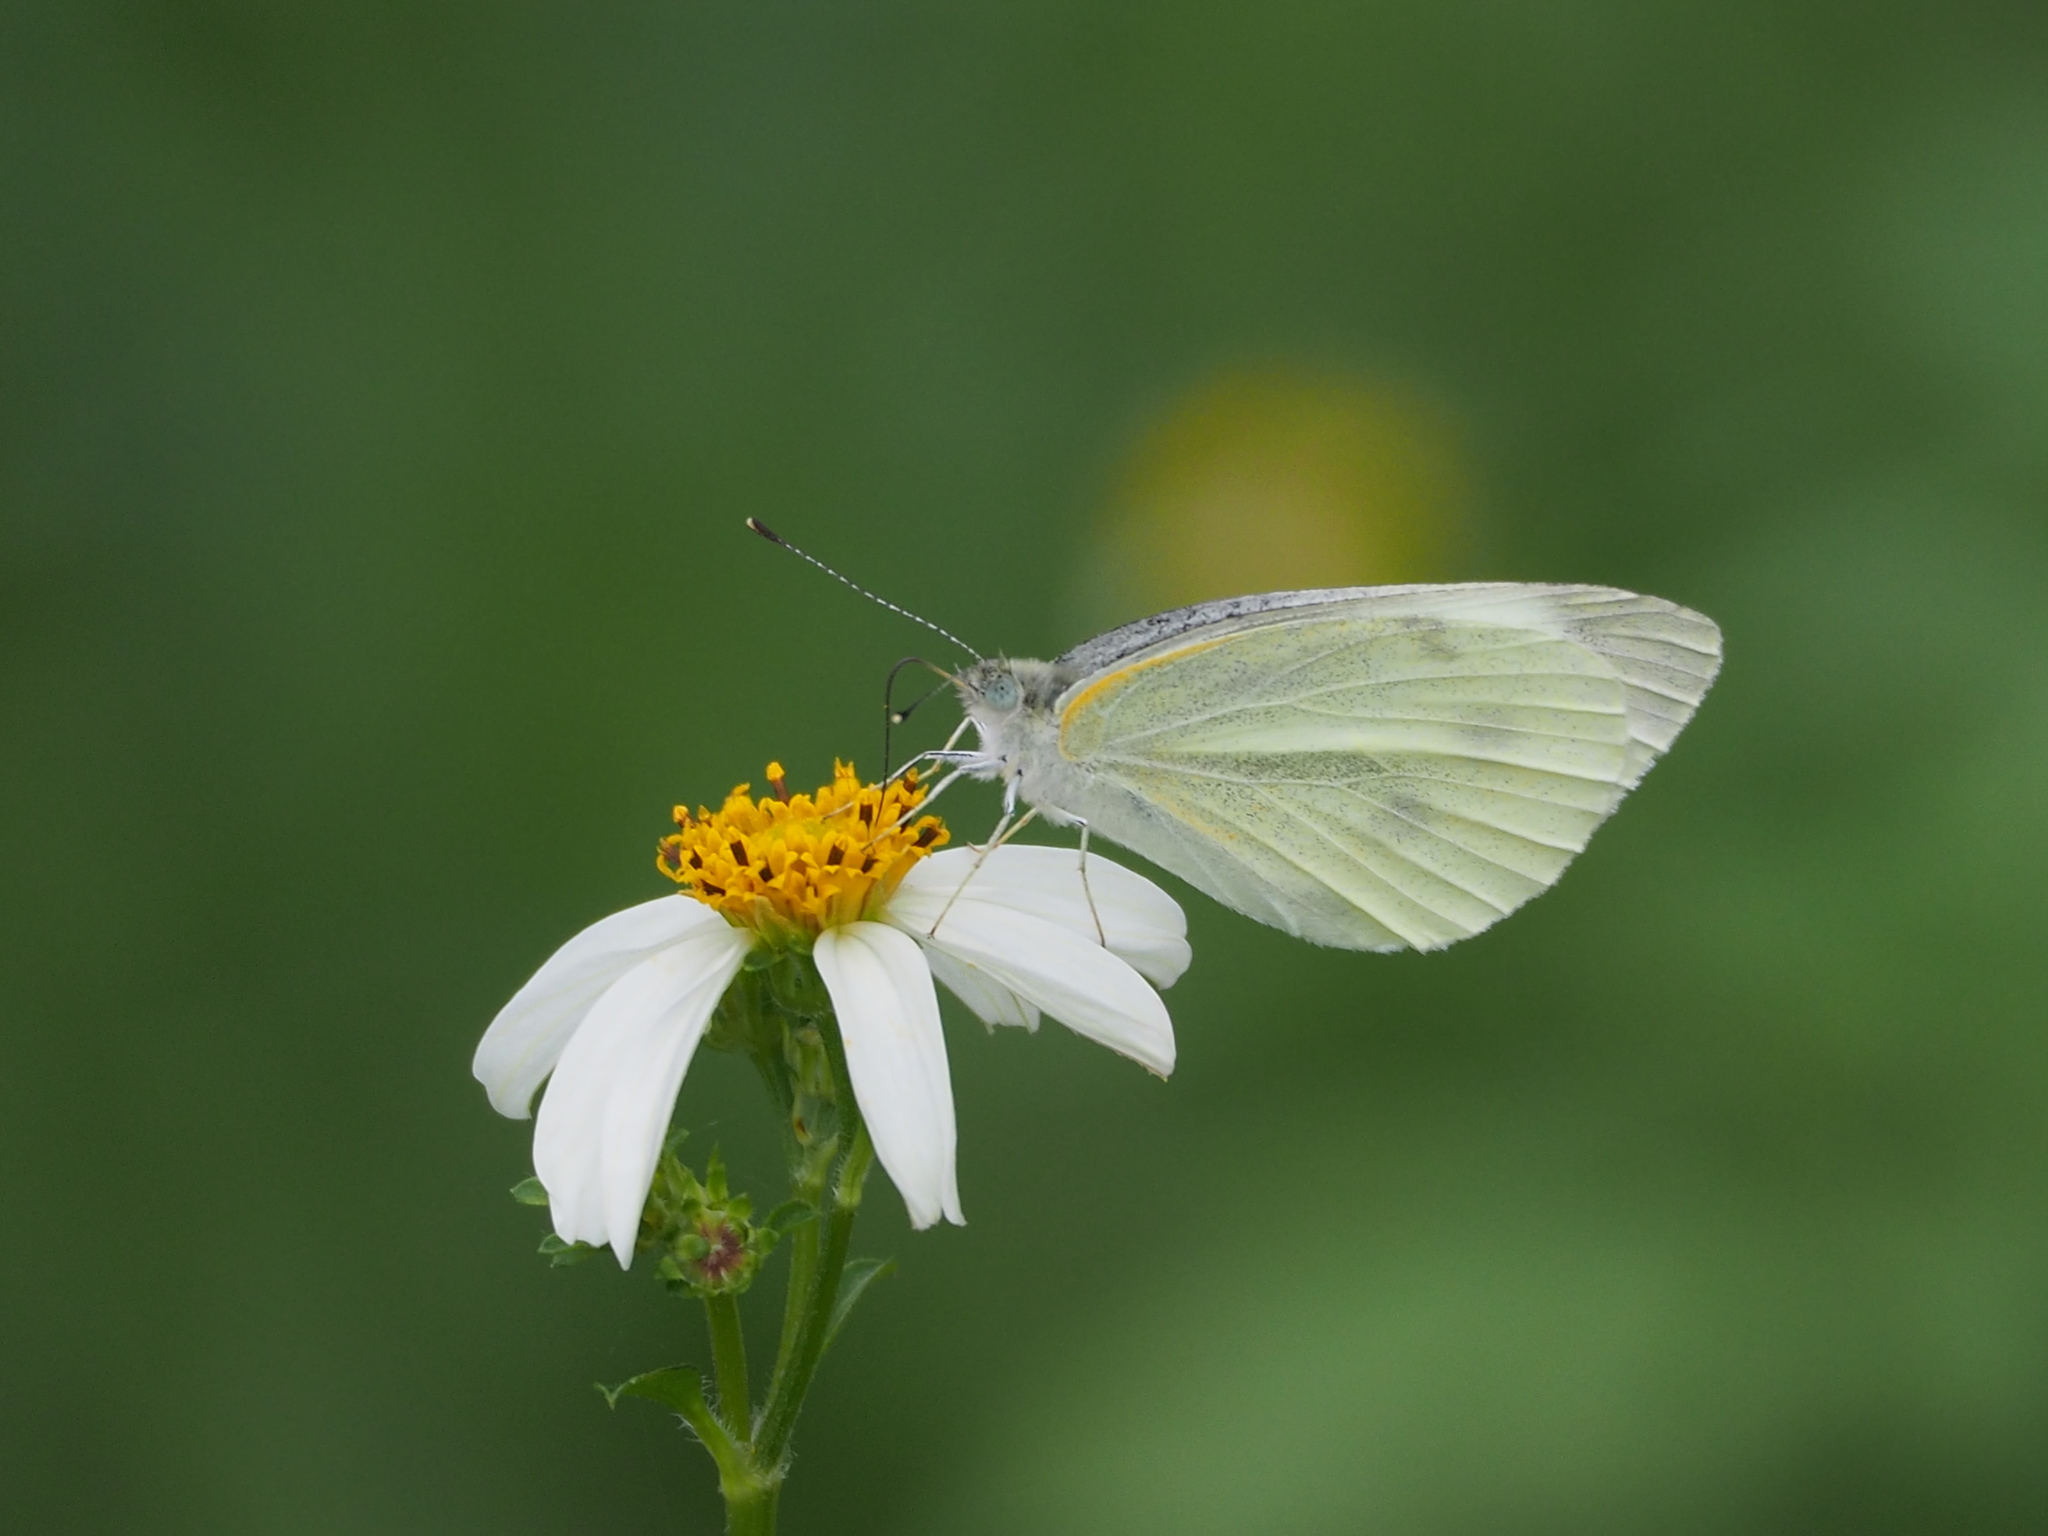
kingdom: Animalia
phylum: Arthropoda
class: Insecta
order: Lepidoptera
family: Pieridae
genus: Pieris
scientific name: Pieris rapae
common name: Small white
